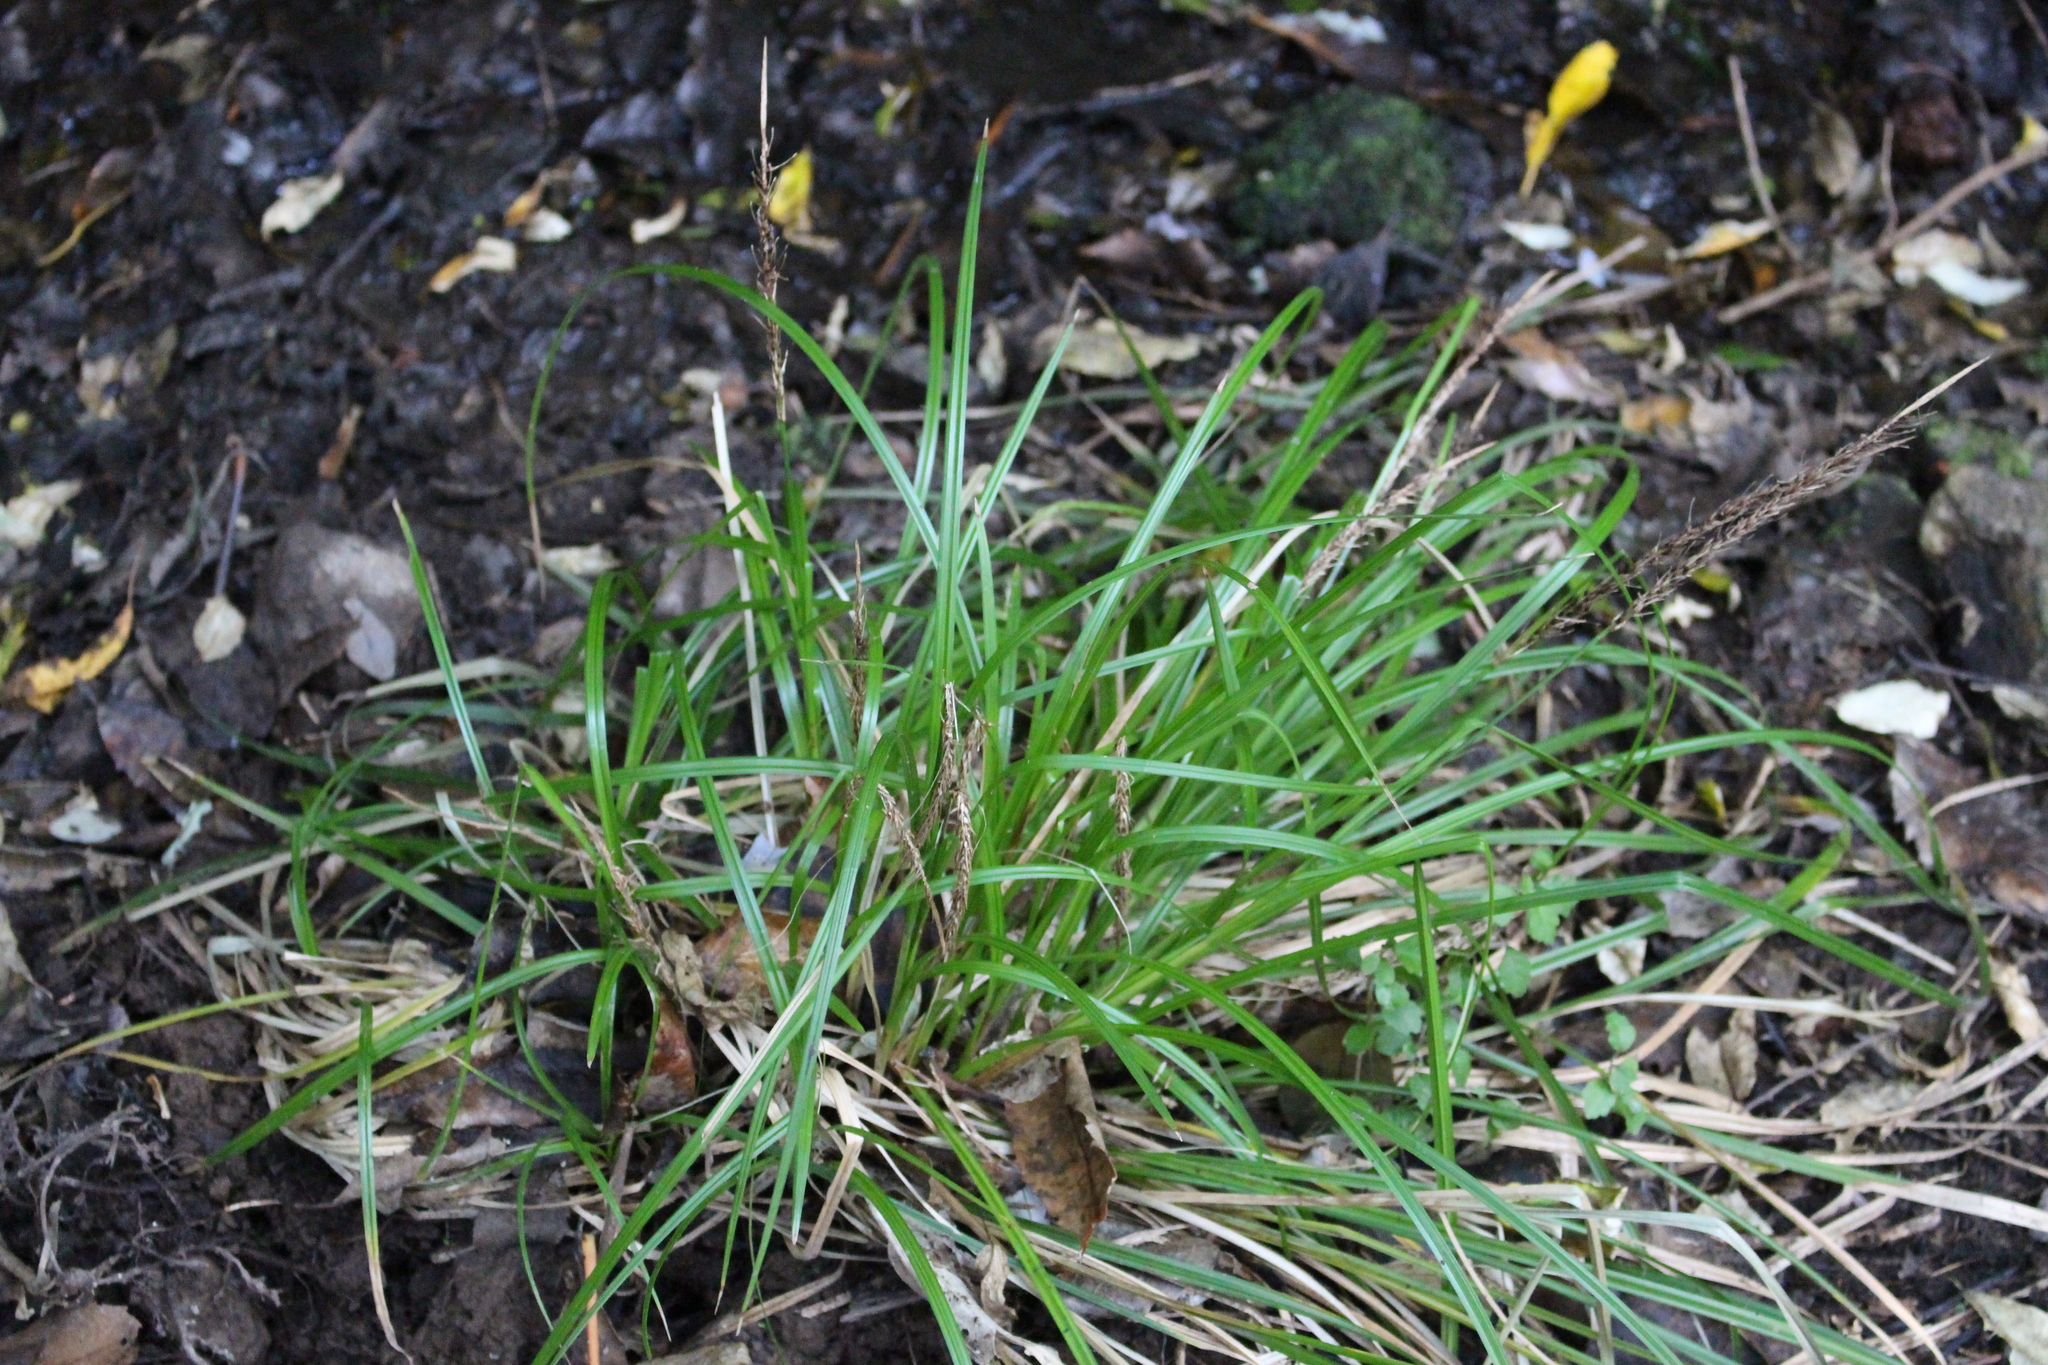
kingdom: Plantae
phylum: Tracheophyta
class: Liliopsida
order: Poales
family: Cyperaceae
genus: Carex
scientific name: Carex megalepis
